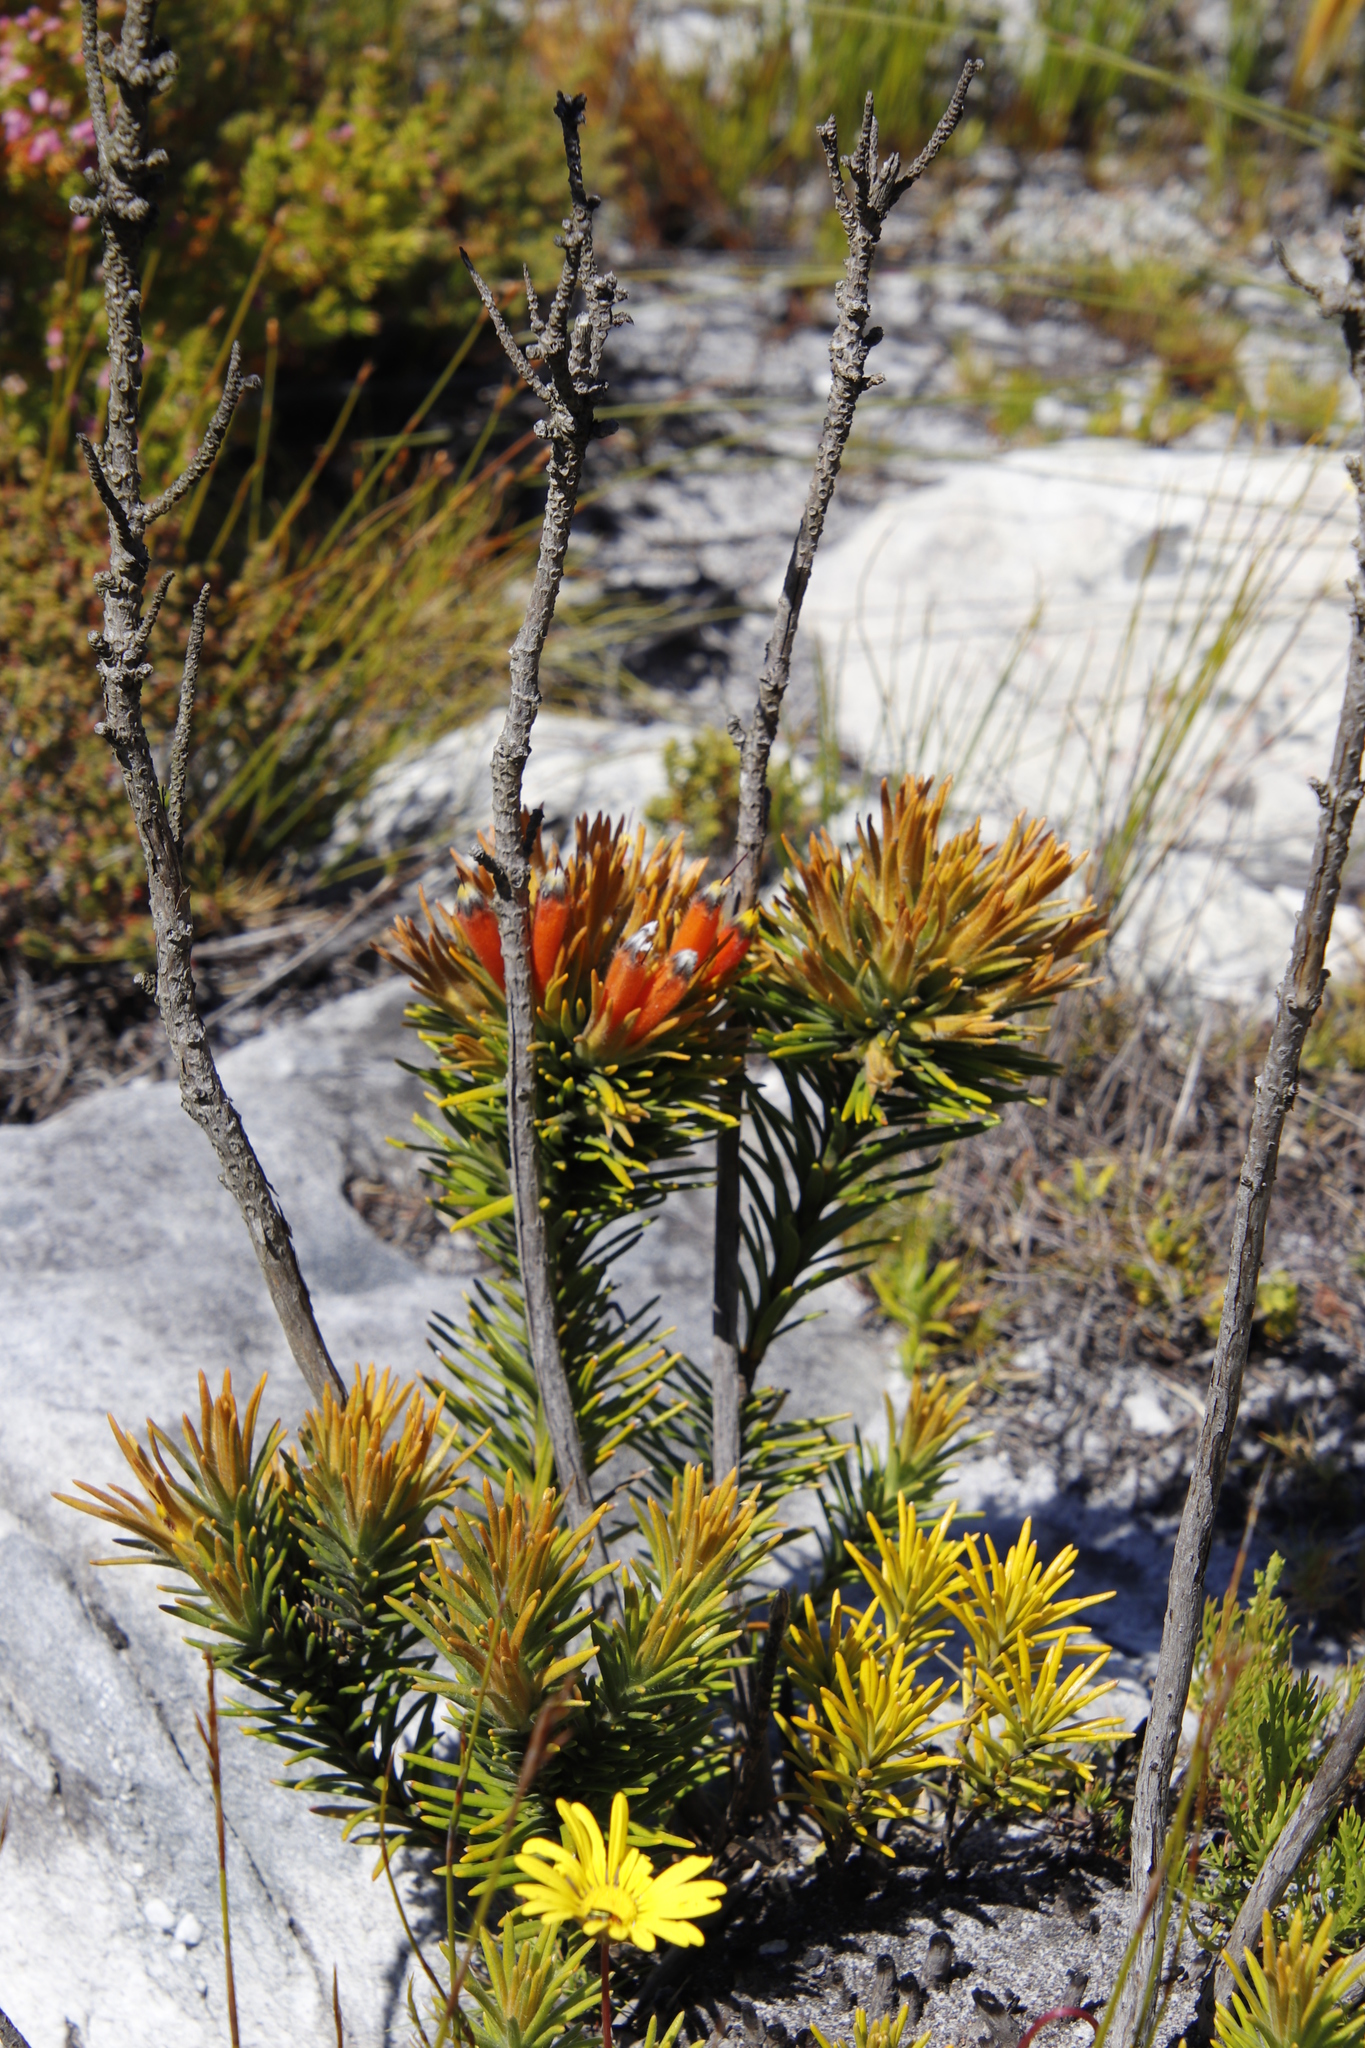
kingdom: Plantae
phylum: Tracheophyta
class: Magnoliopsida
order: Lamiales
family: Stilbaceae
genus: Retzia
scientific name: Retzia capensis
